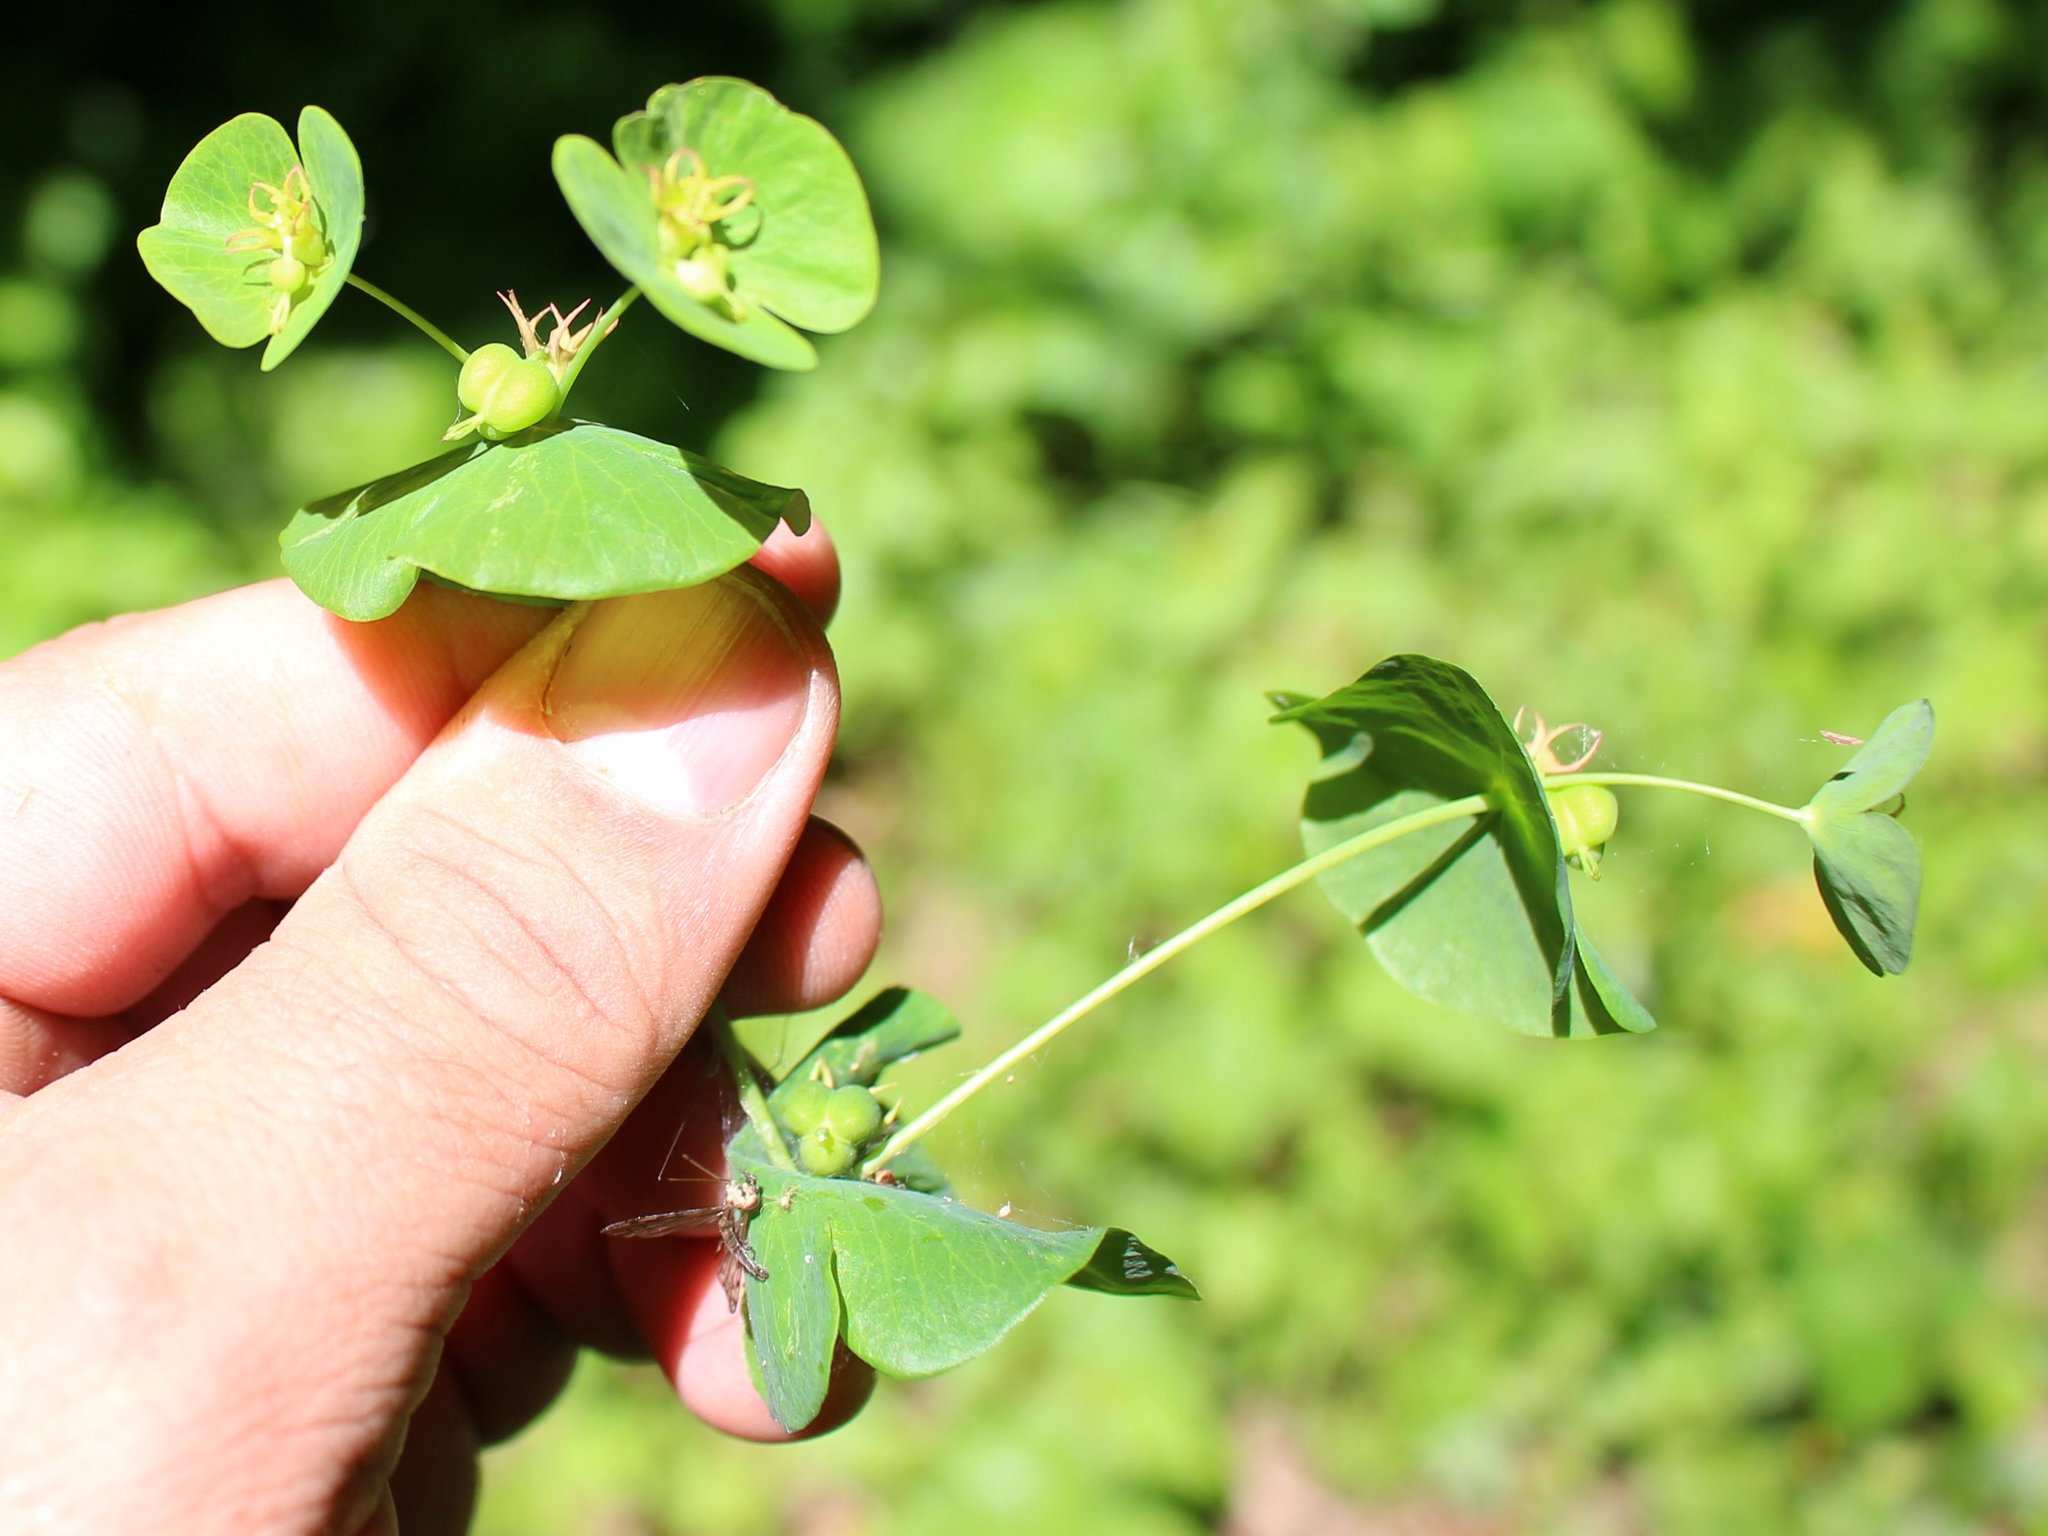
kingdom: Plantae
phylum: Tracheophyta
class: Magnoliopsida
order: Malpighiales
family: Euphorbiaceae
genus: Euphorbia
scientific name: Euphorbia macroceras
